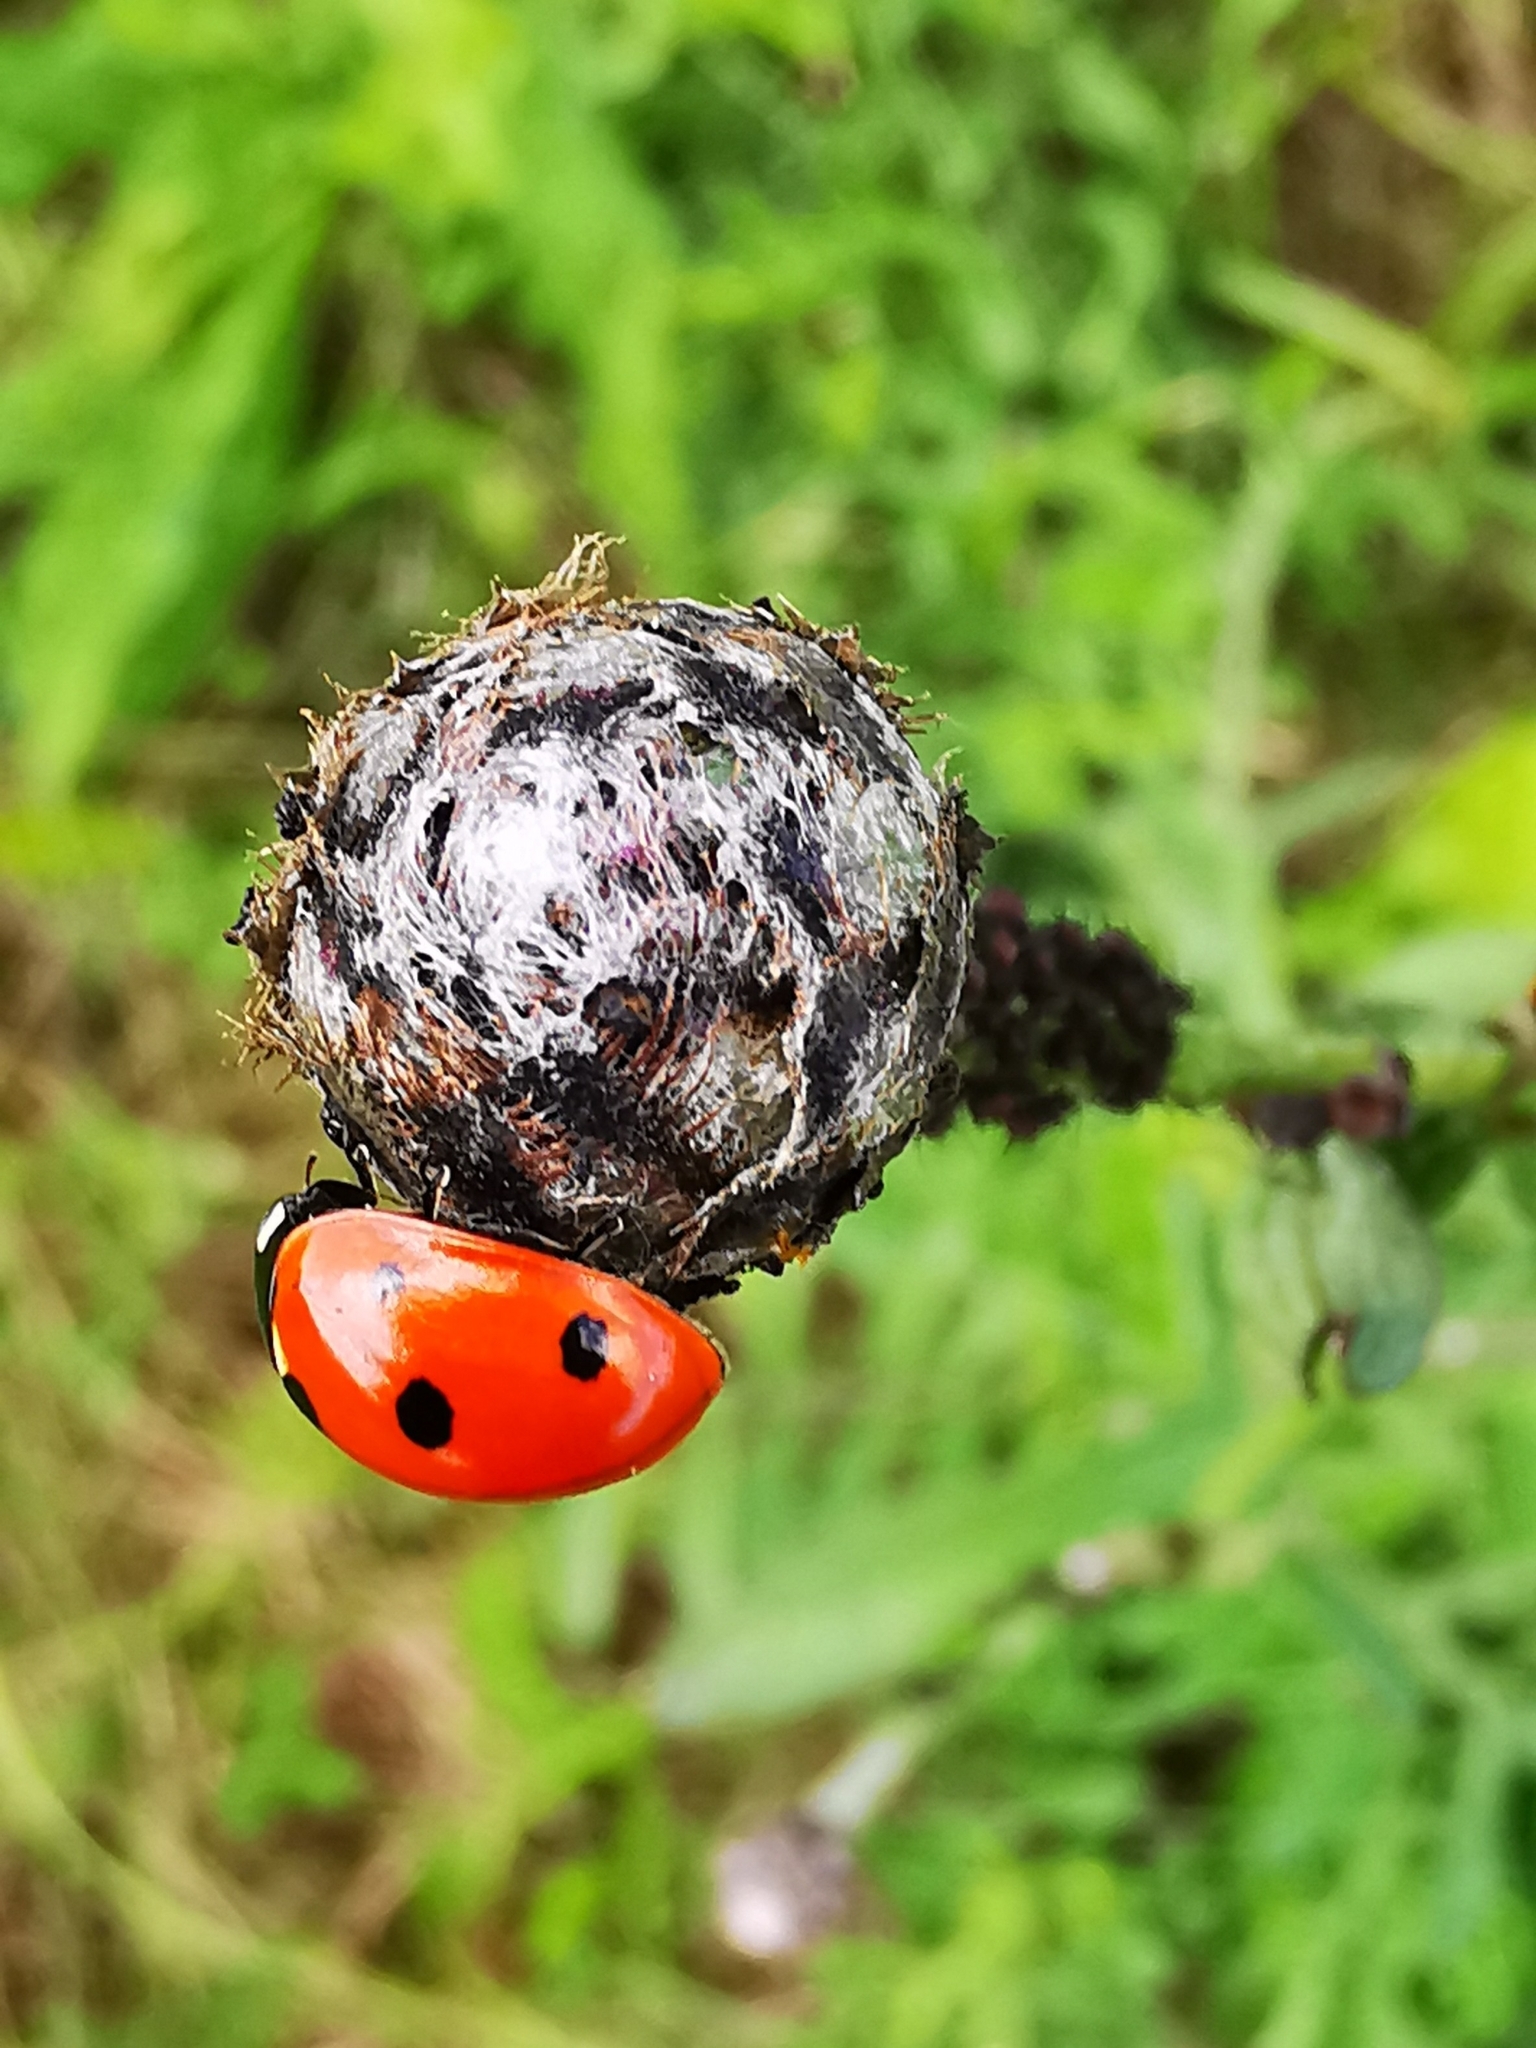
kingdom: Animalia
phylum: Arthropoda
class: Insecta
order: Coleoptera
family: Coccinellidae
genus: Coccinella
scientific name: Coccinella septempunctata
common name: Sevenspotted lady beetle
